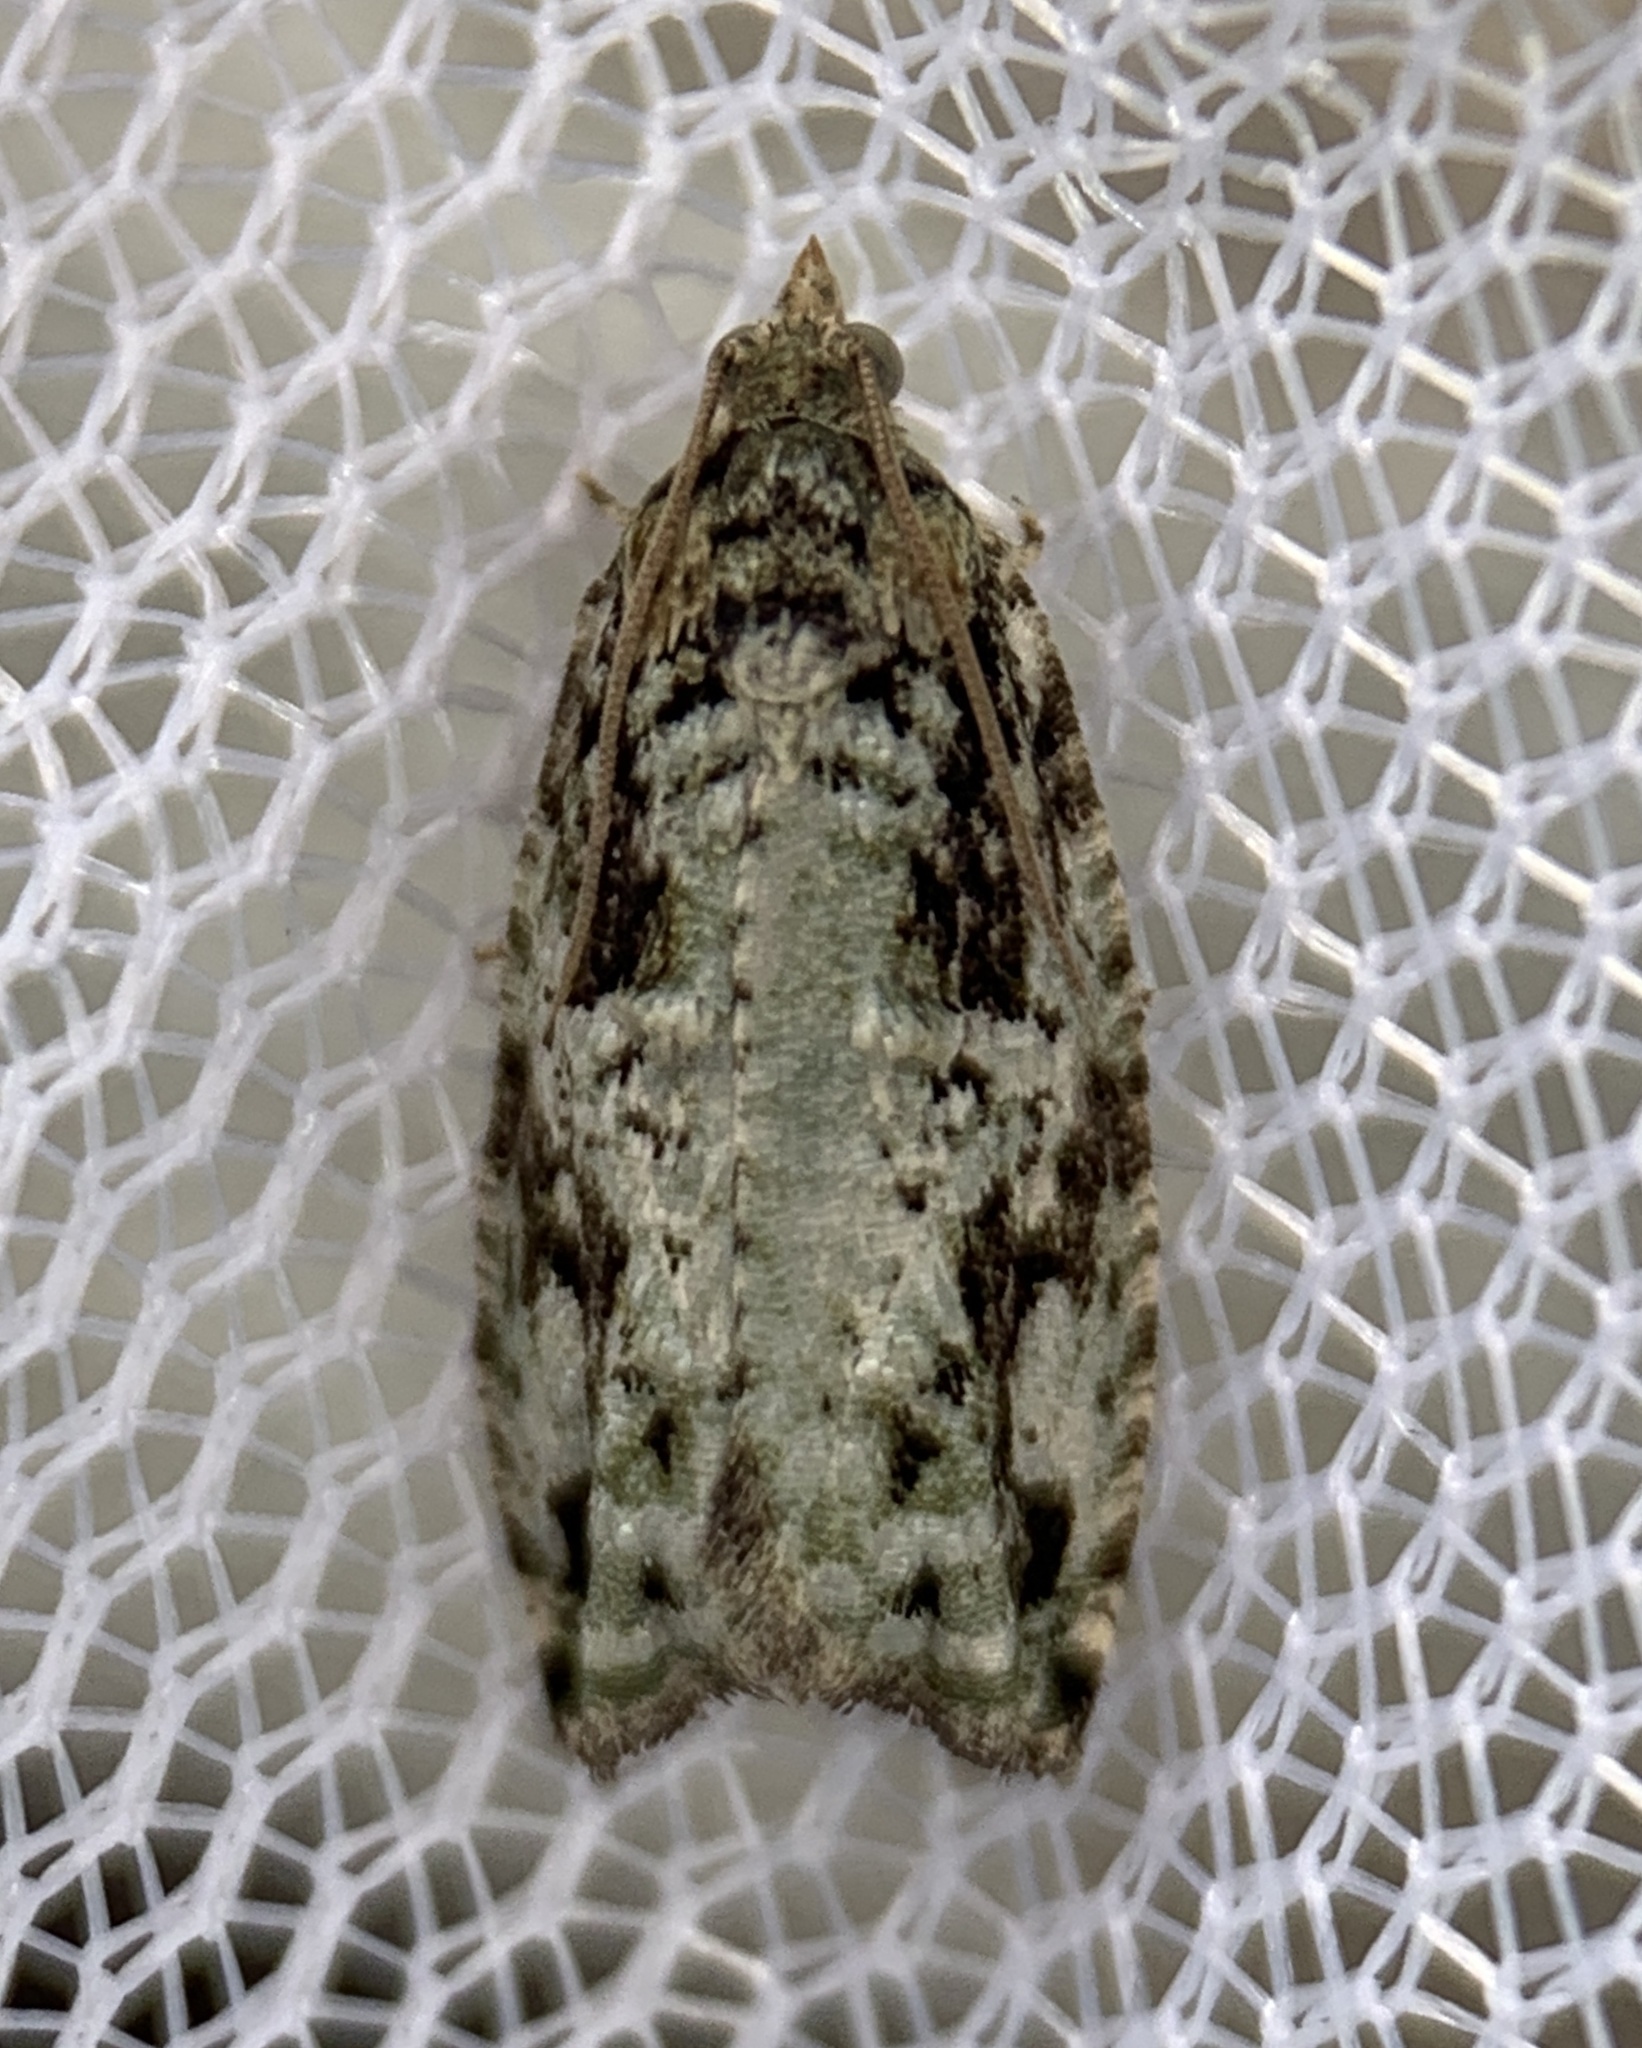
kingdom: Animalia
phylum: Arthropoda
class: Insecta
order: Lepidoptera
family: Tortricidae
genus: Proteoteras
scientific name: Proteoteras moffatiana
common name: Maple bud borer moth
